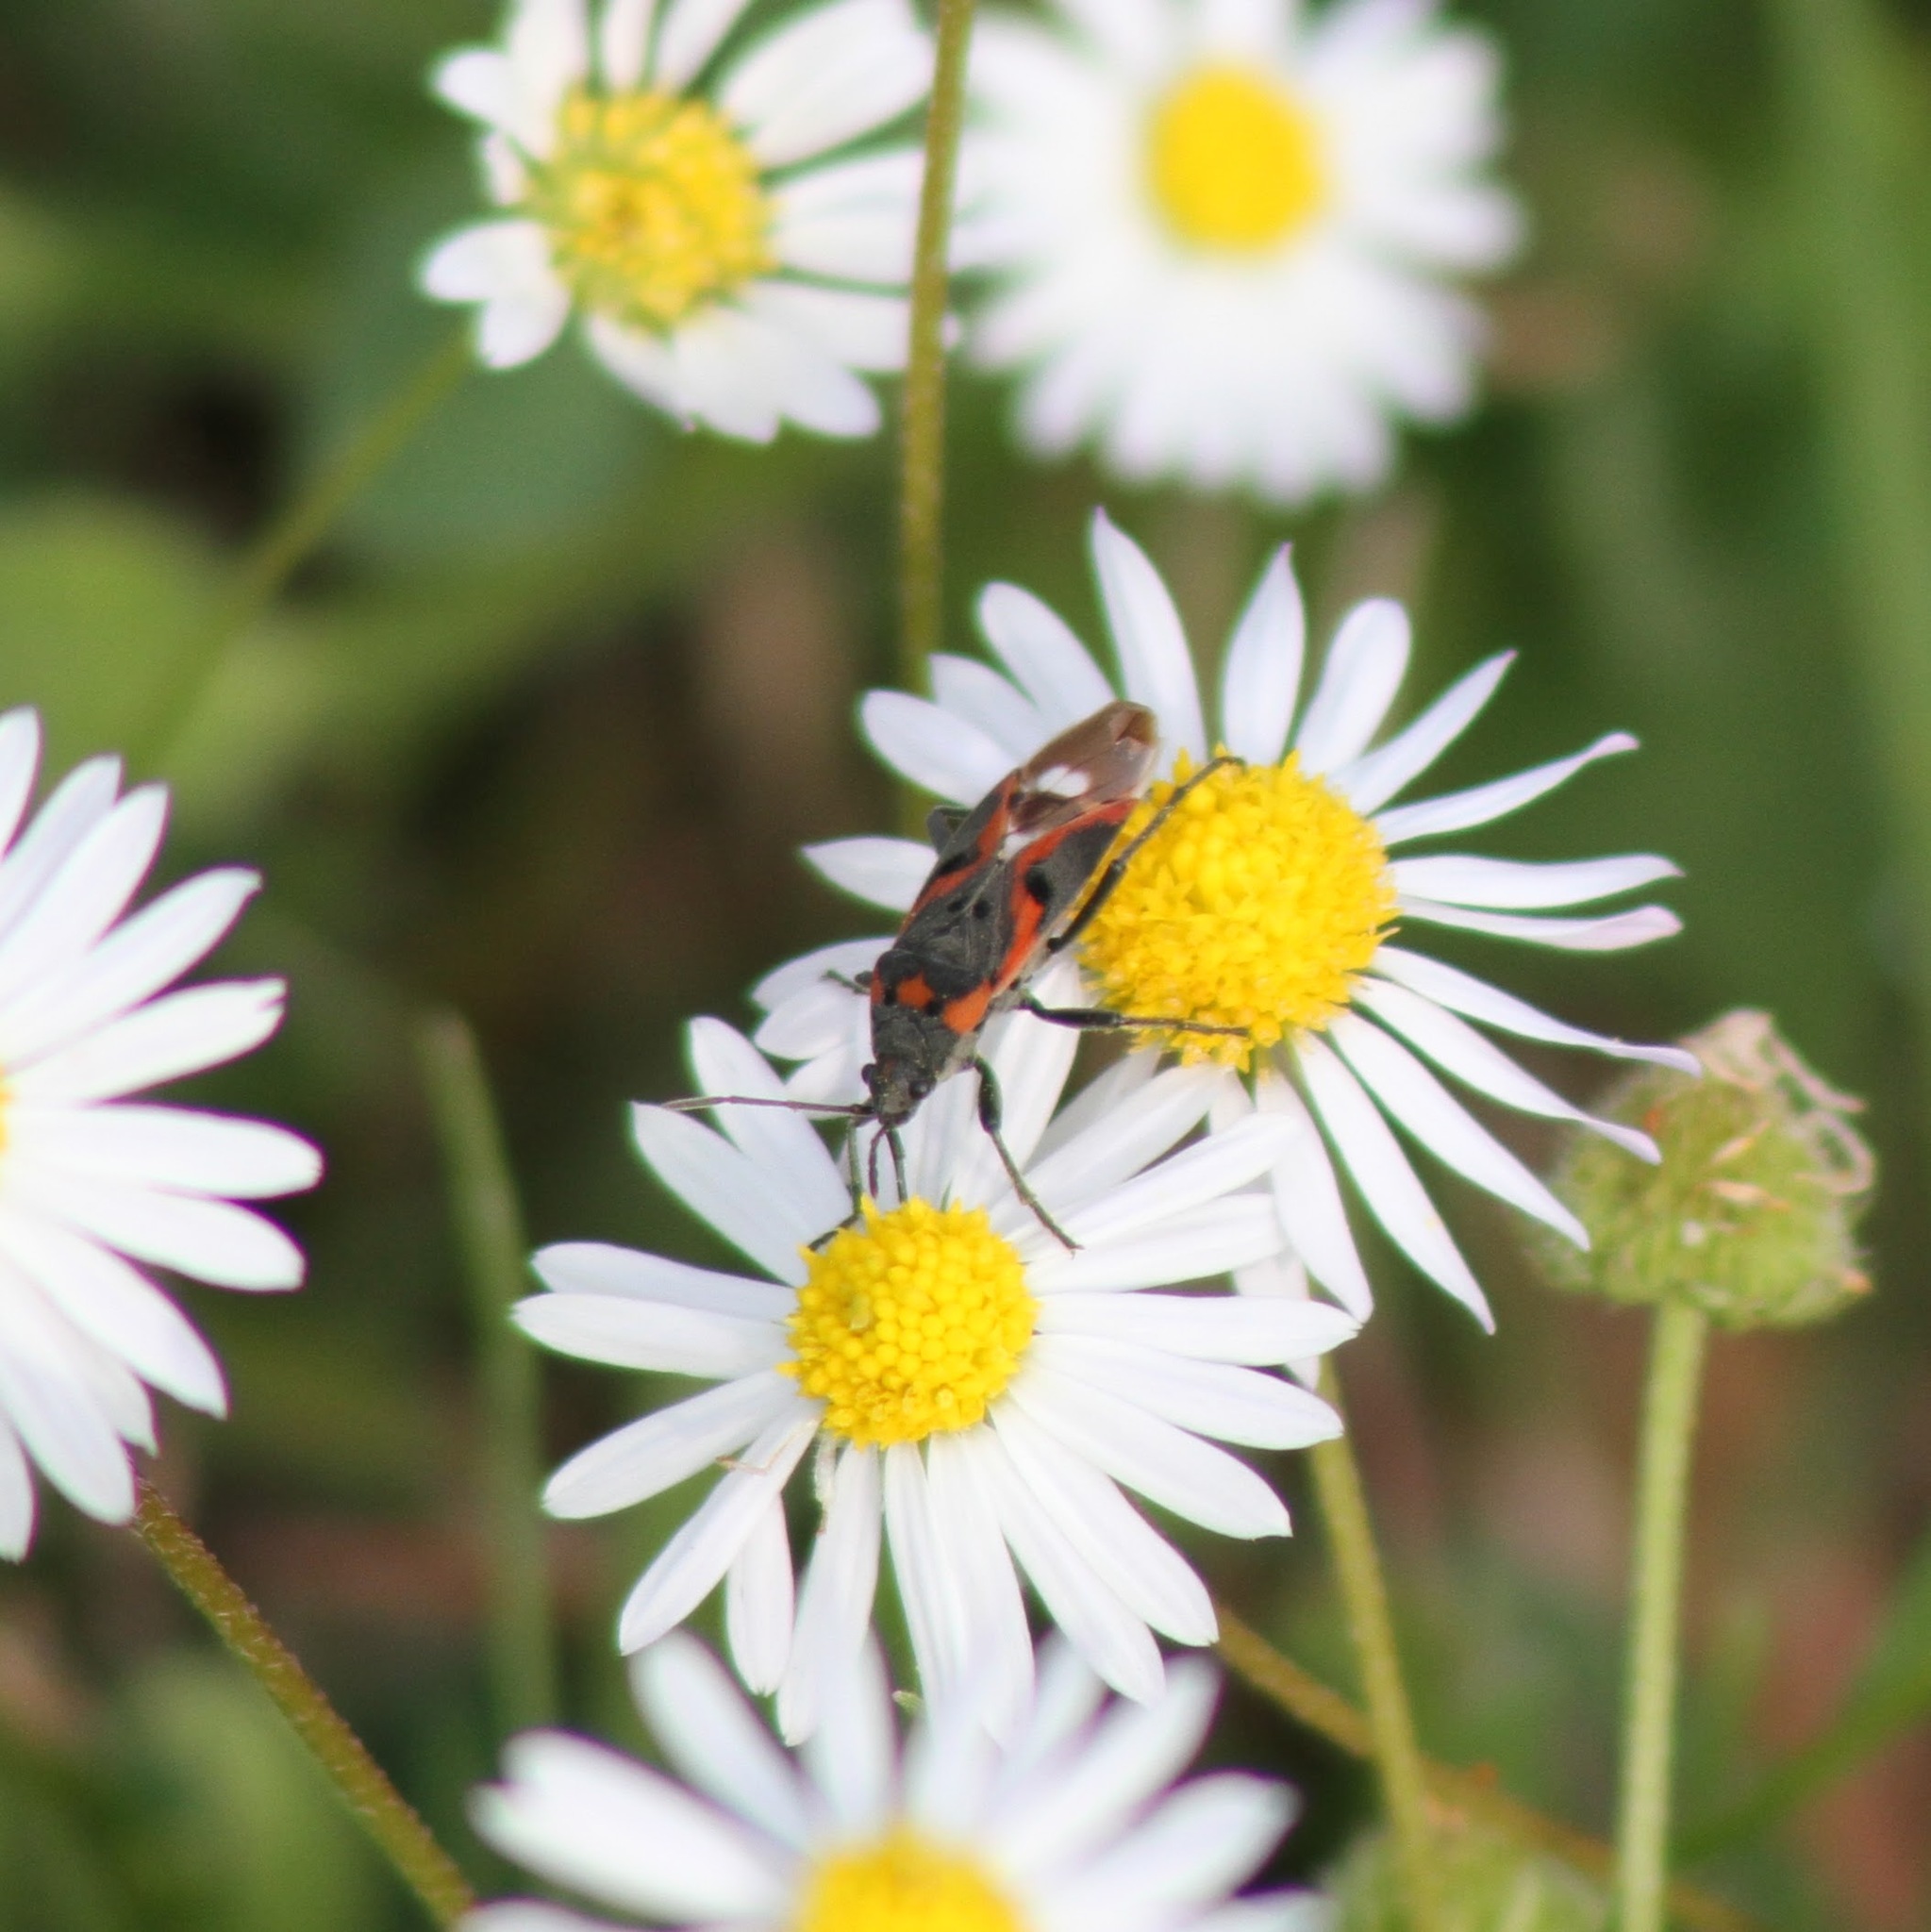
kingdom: Animalia
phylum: Arthropoda
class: Insecta
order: Hemiptera
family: Lygaeidae
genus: Lygaeus
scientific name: Lygaeus kalmii
